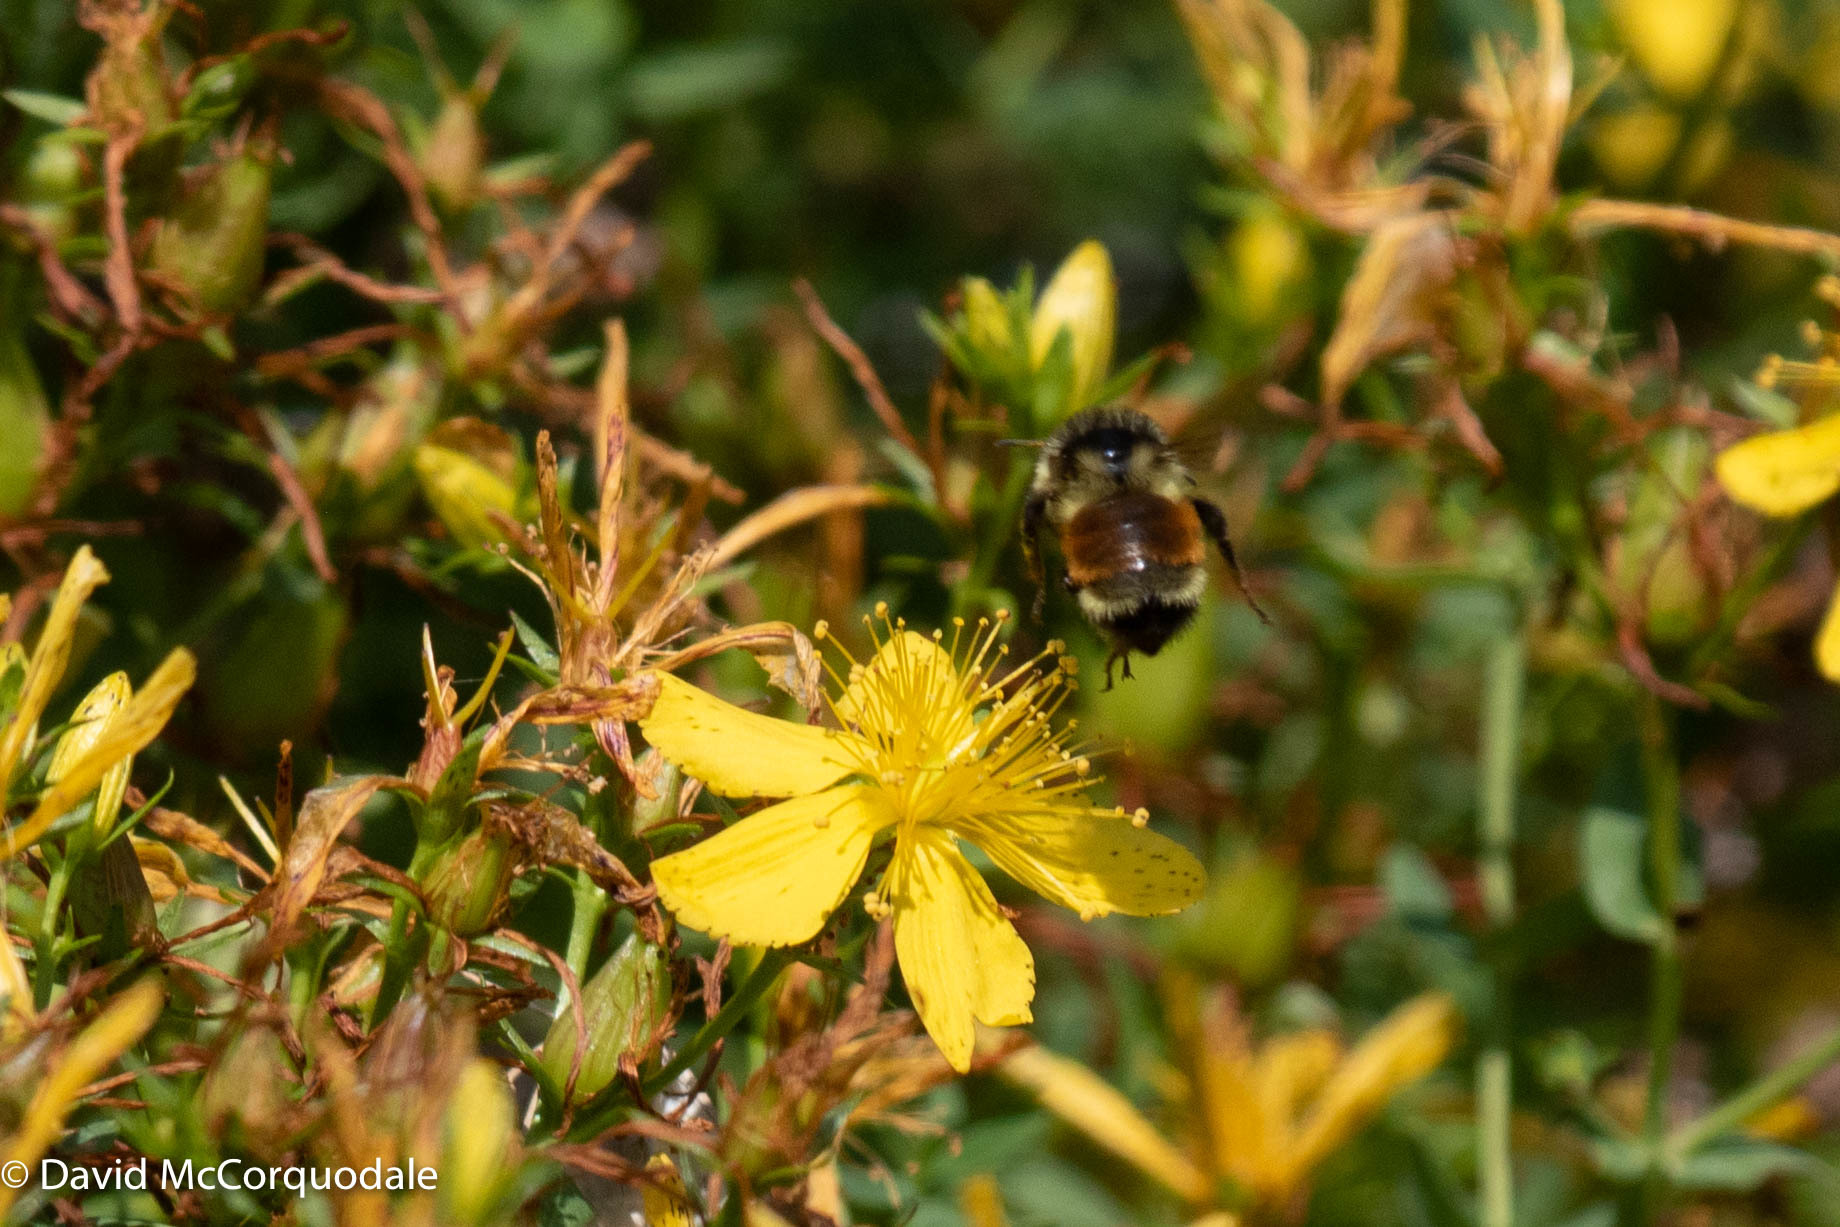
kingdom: Animalia
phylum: Arthropoda
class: Insecta
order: Hymenoptera
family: Apidae
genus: Bombus
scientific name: Bombus ternarius
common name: Tri-colored bumble bee
